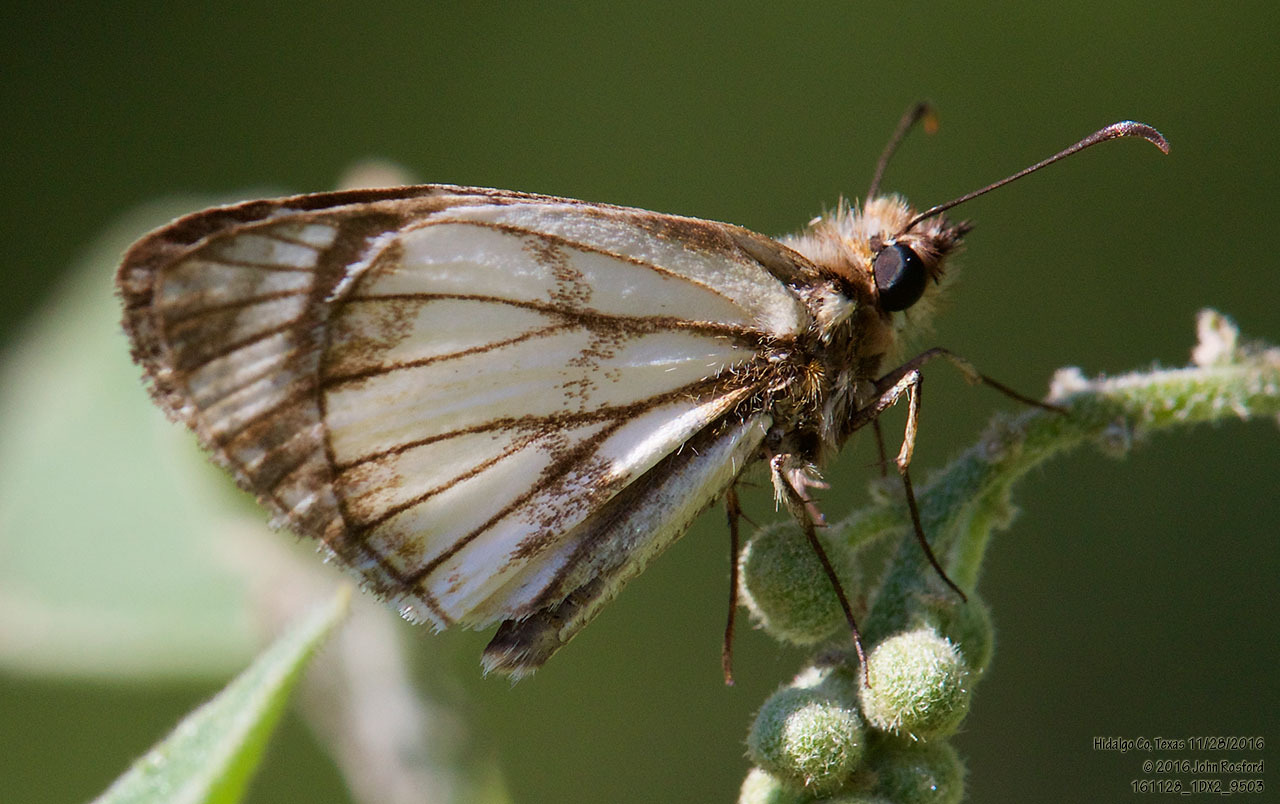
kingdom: Animalia
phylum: Arthropoda
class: Insecta
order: Lepidoptera
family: Hesperiidae
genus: Heliopetes
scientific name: Heliopetes alana
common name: Alana white-skipper
